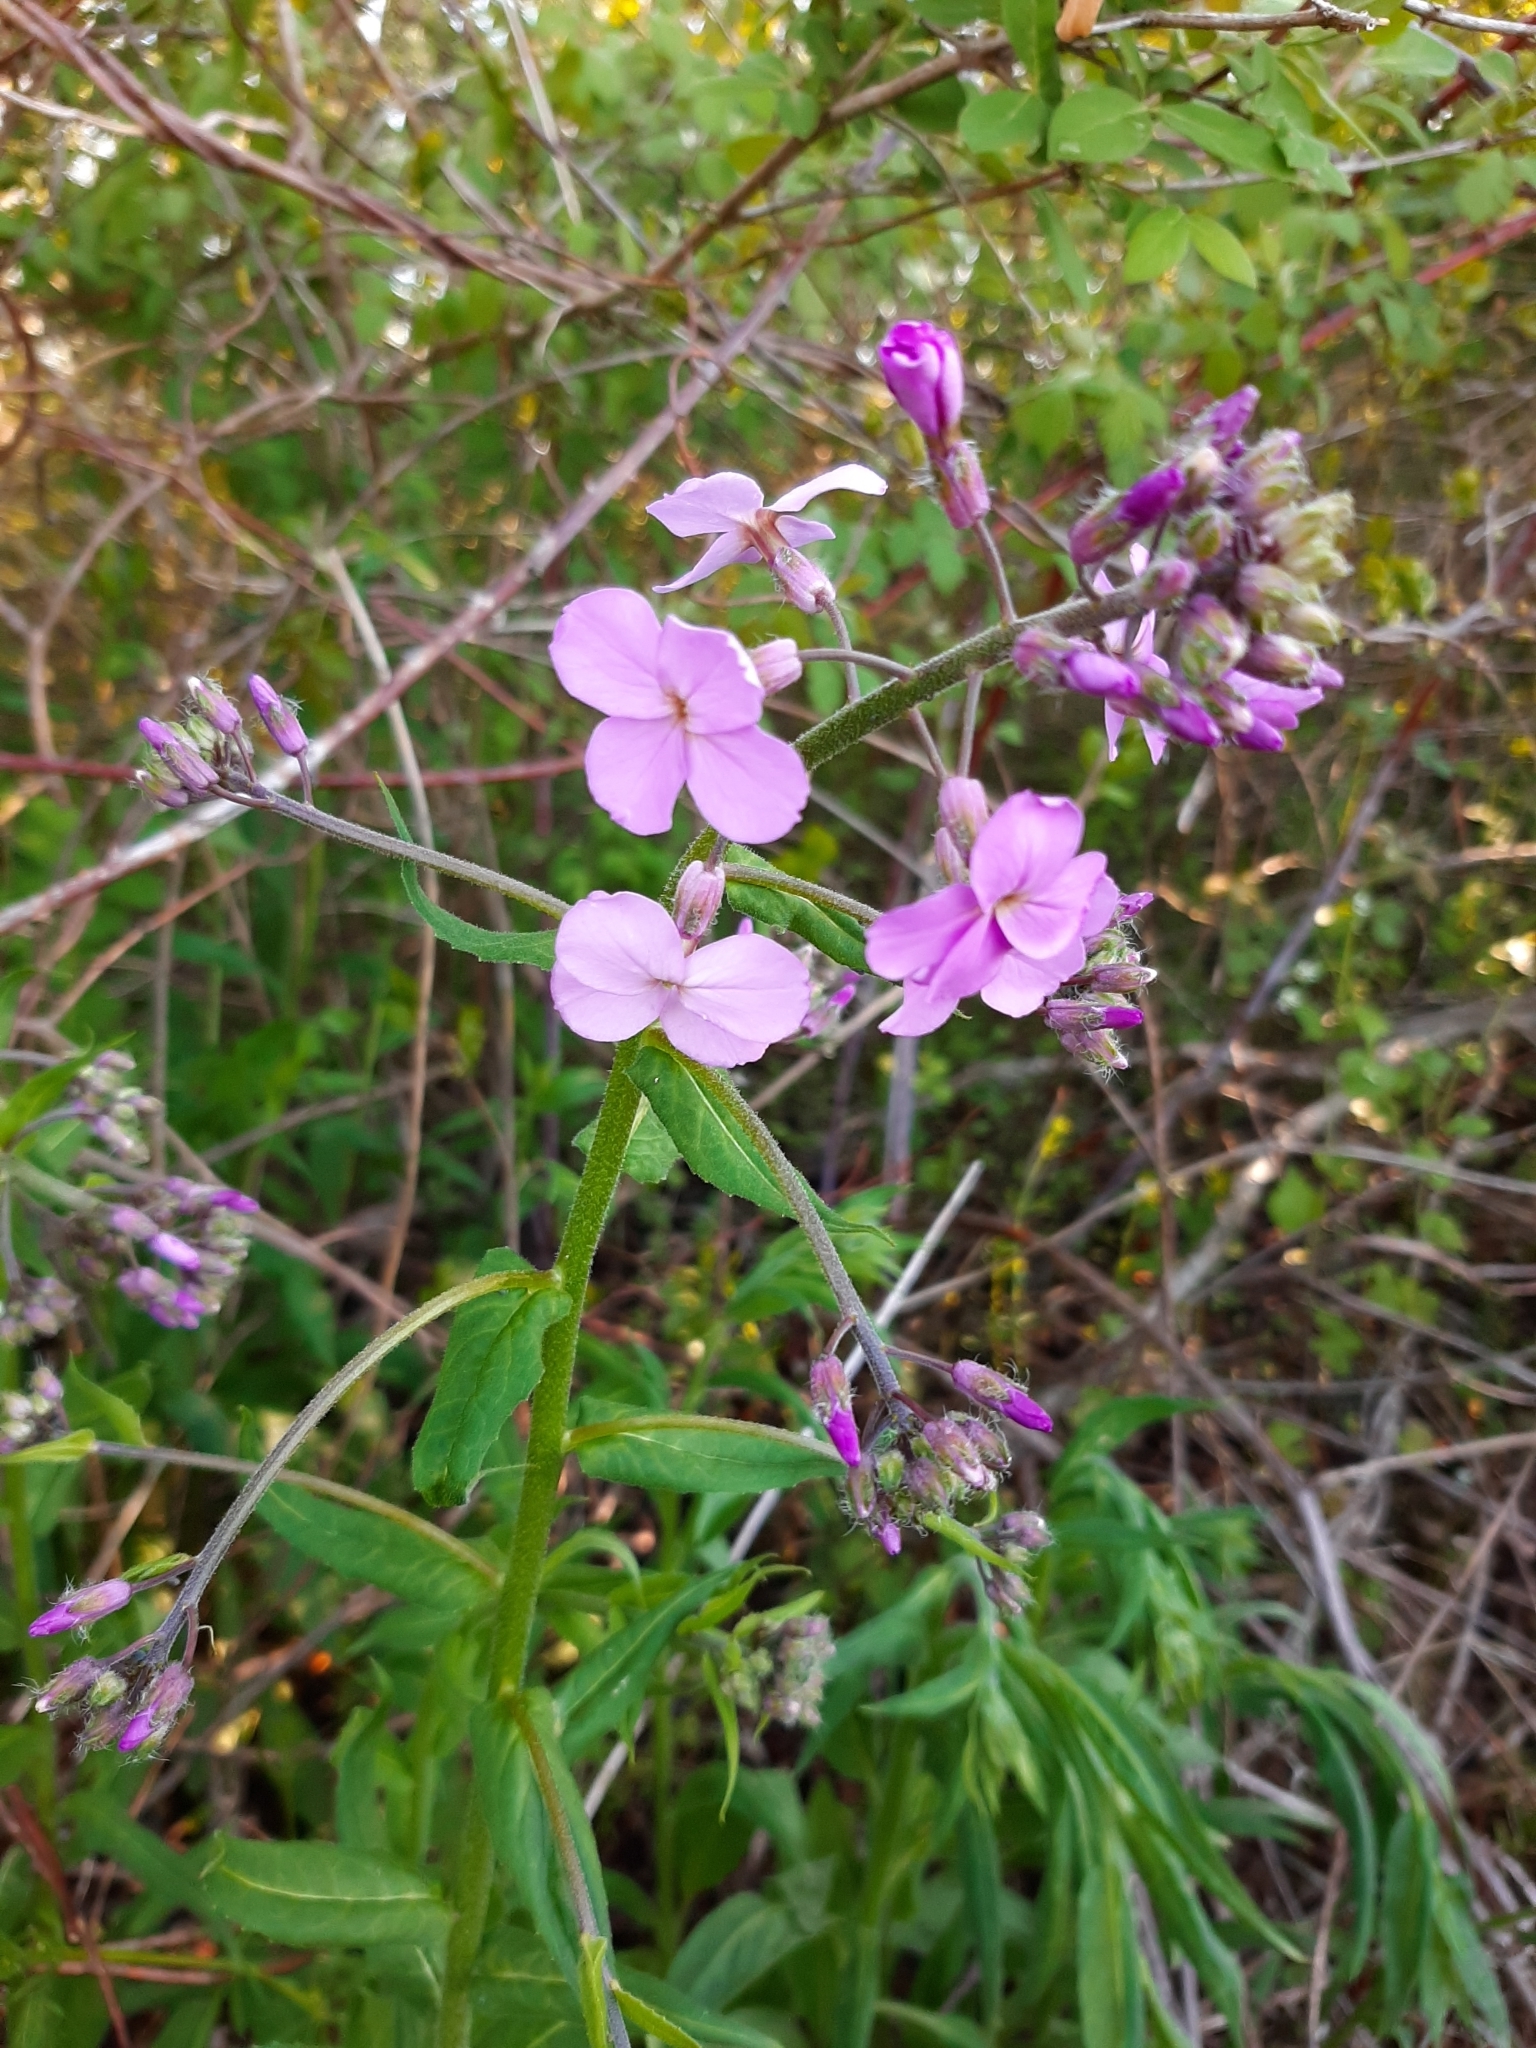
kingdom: Plantae
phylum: Tracheophyta
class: Magnoliopsida
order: Brassicales
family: Brassicaceae
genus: Hesperis
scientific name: Hesperis matronalis
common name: Dame's-violet
